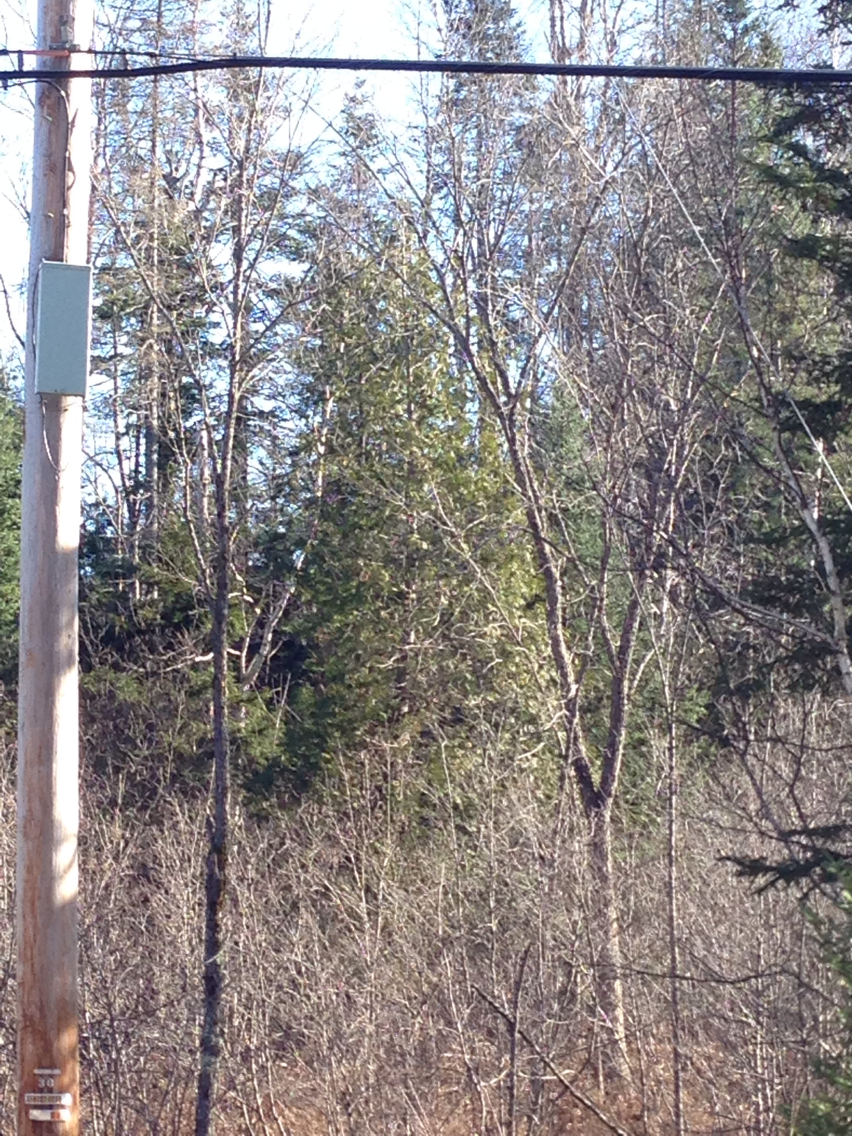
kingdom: Plantae
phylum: Tracheophyta
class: Pinopsida
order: Pinales
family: Cupressaceae
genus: Thuja
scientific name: Thuja occidentalis
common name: Northern white-cedar
